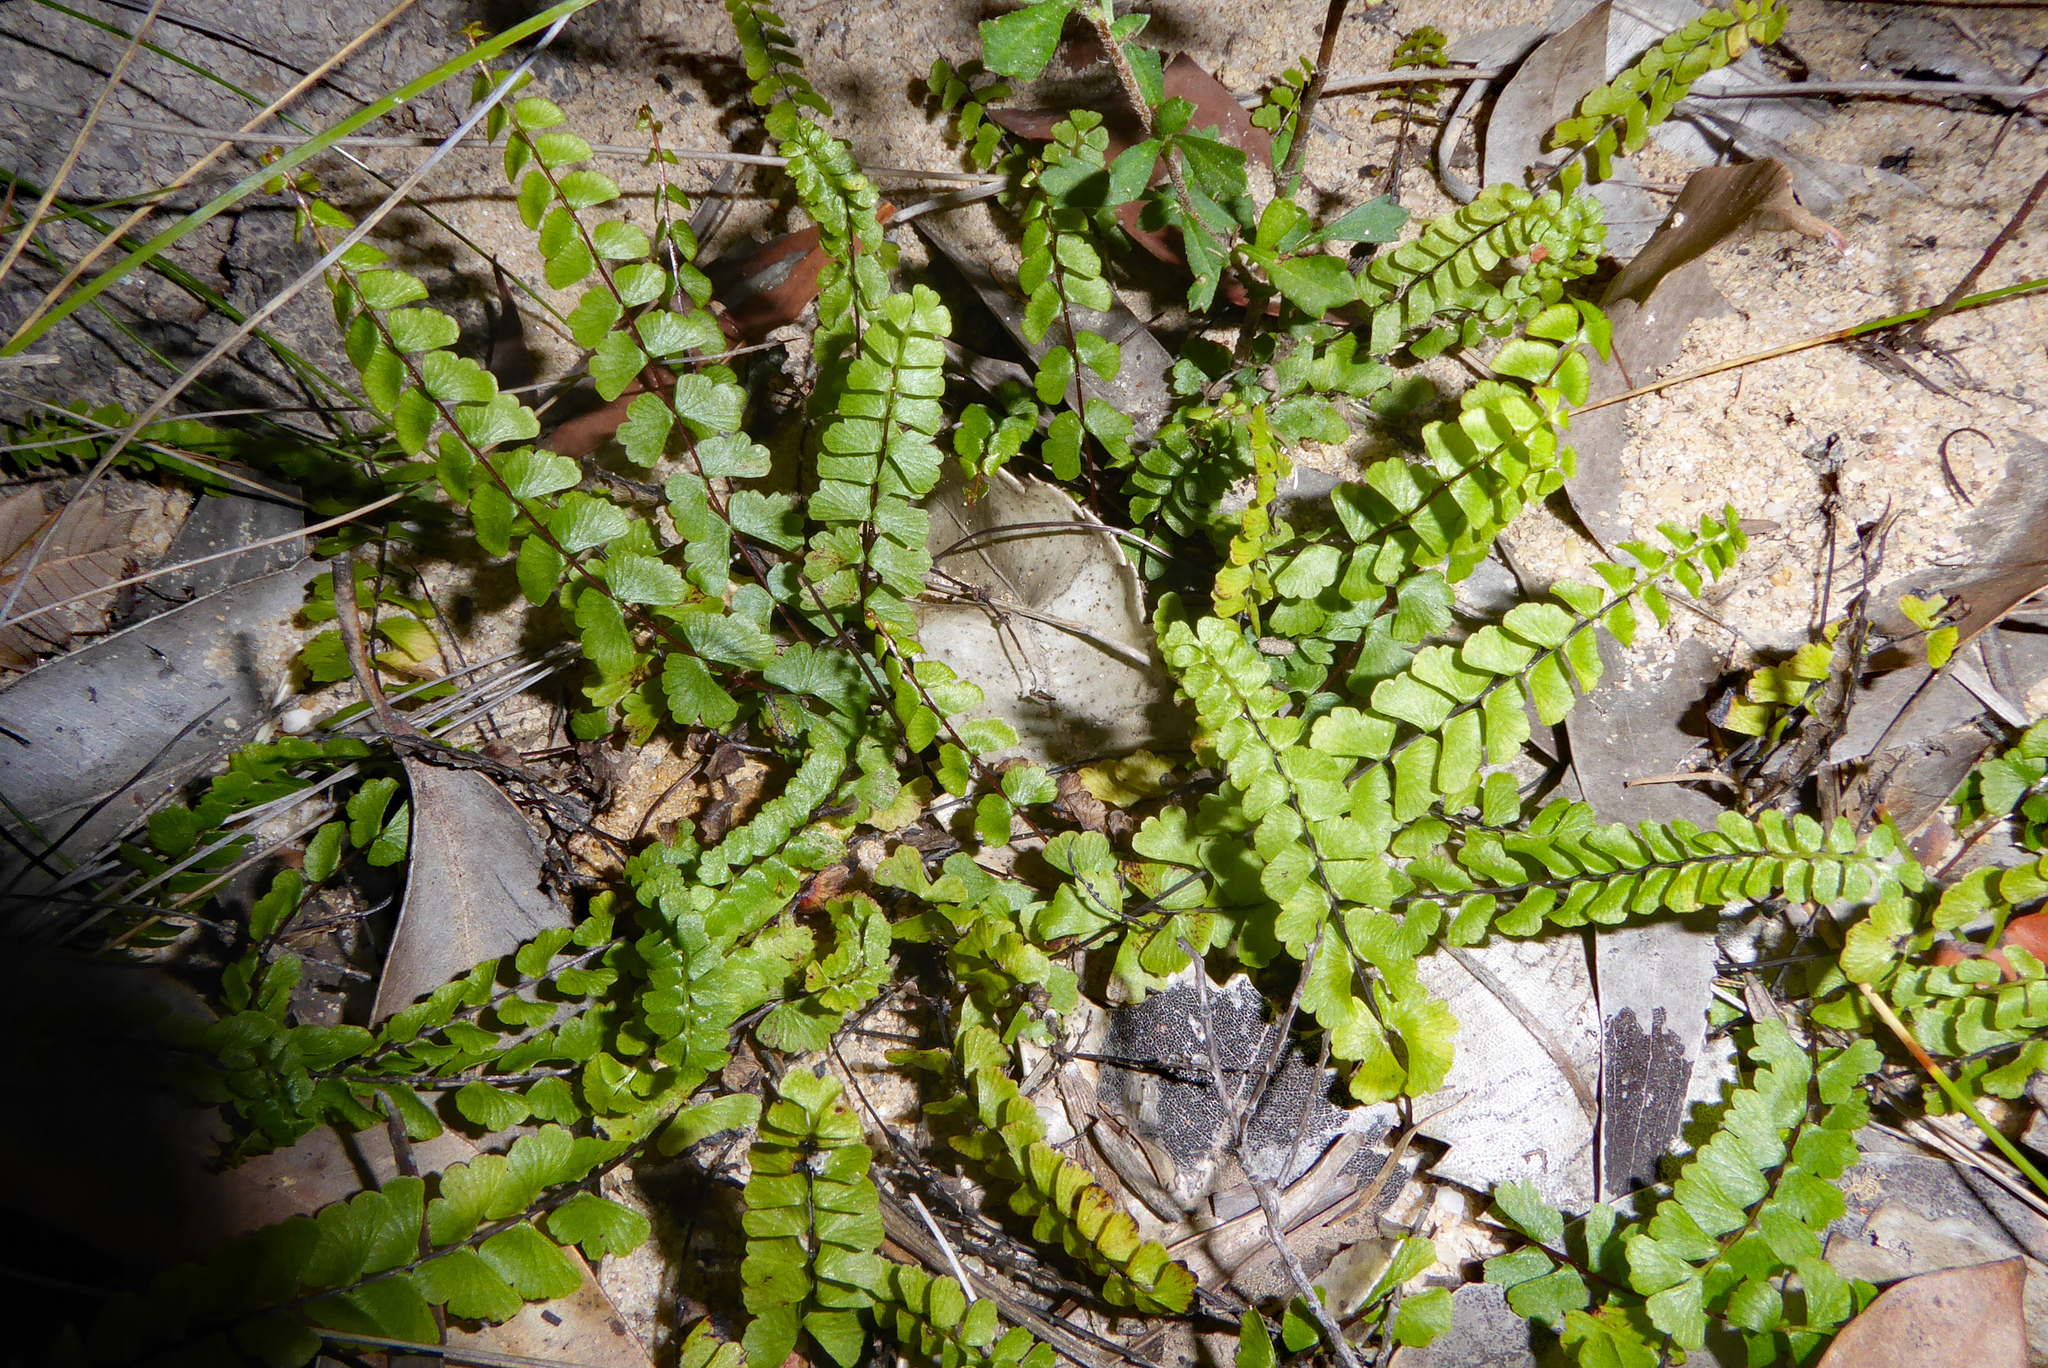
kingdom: Plantae
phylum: Tracheophyta
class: Polypodiopsida
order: Polypodiales
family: Lindsaeaceae
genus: Lindsaea
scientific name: Lindsaea linearis
